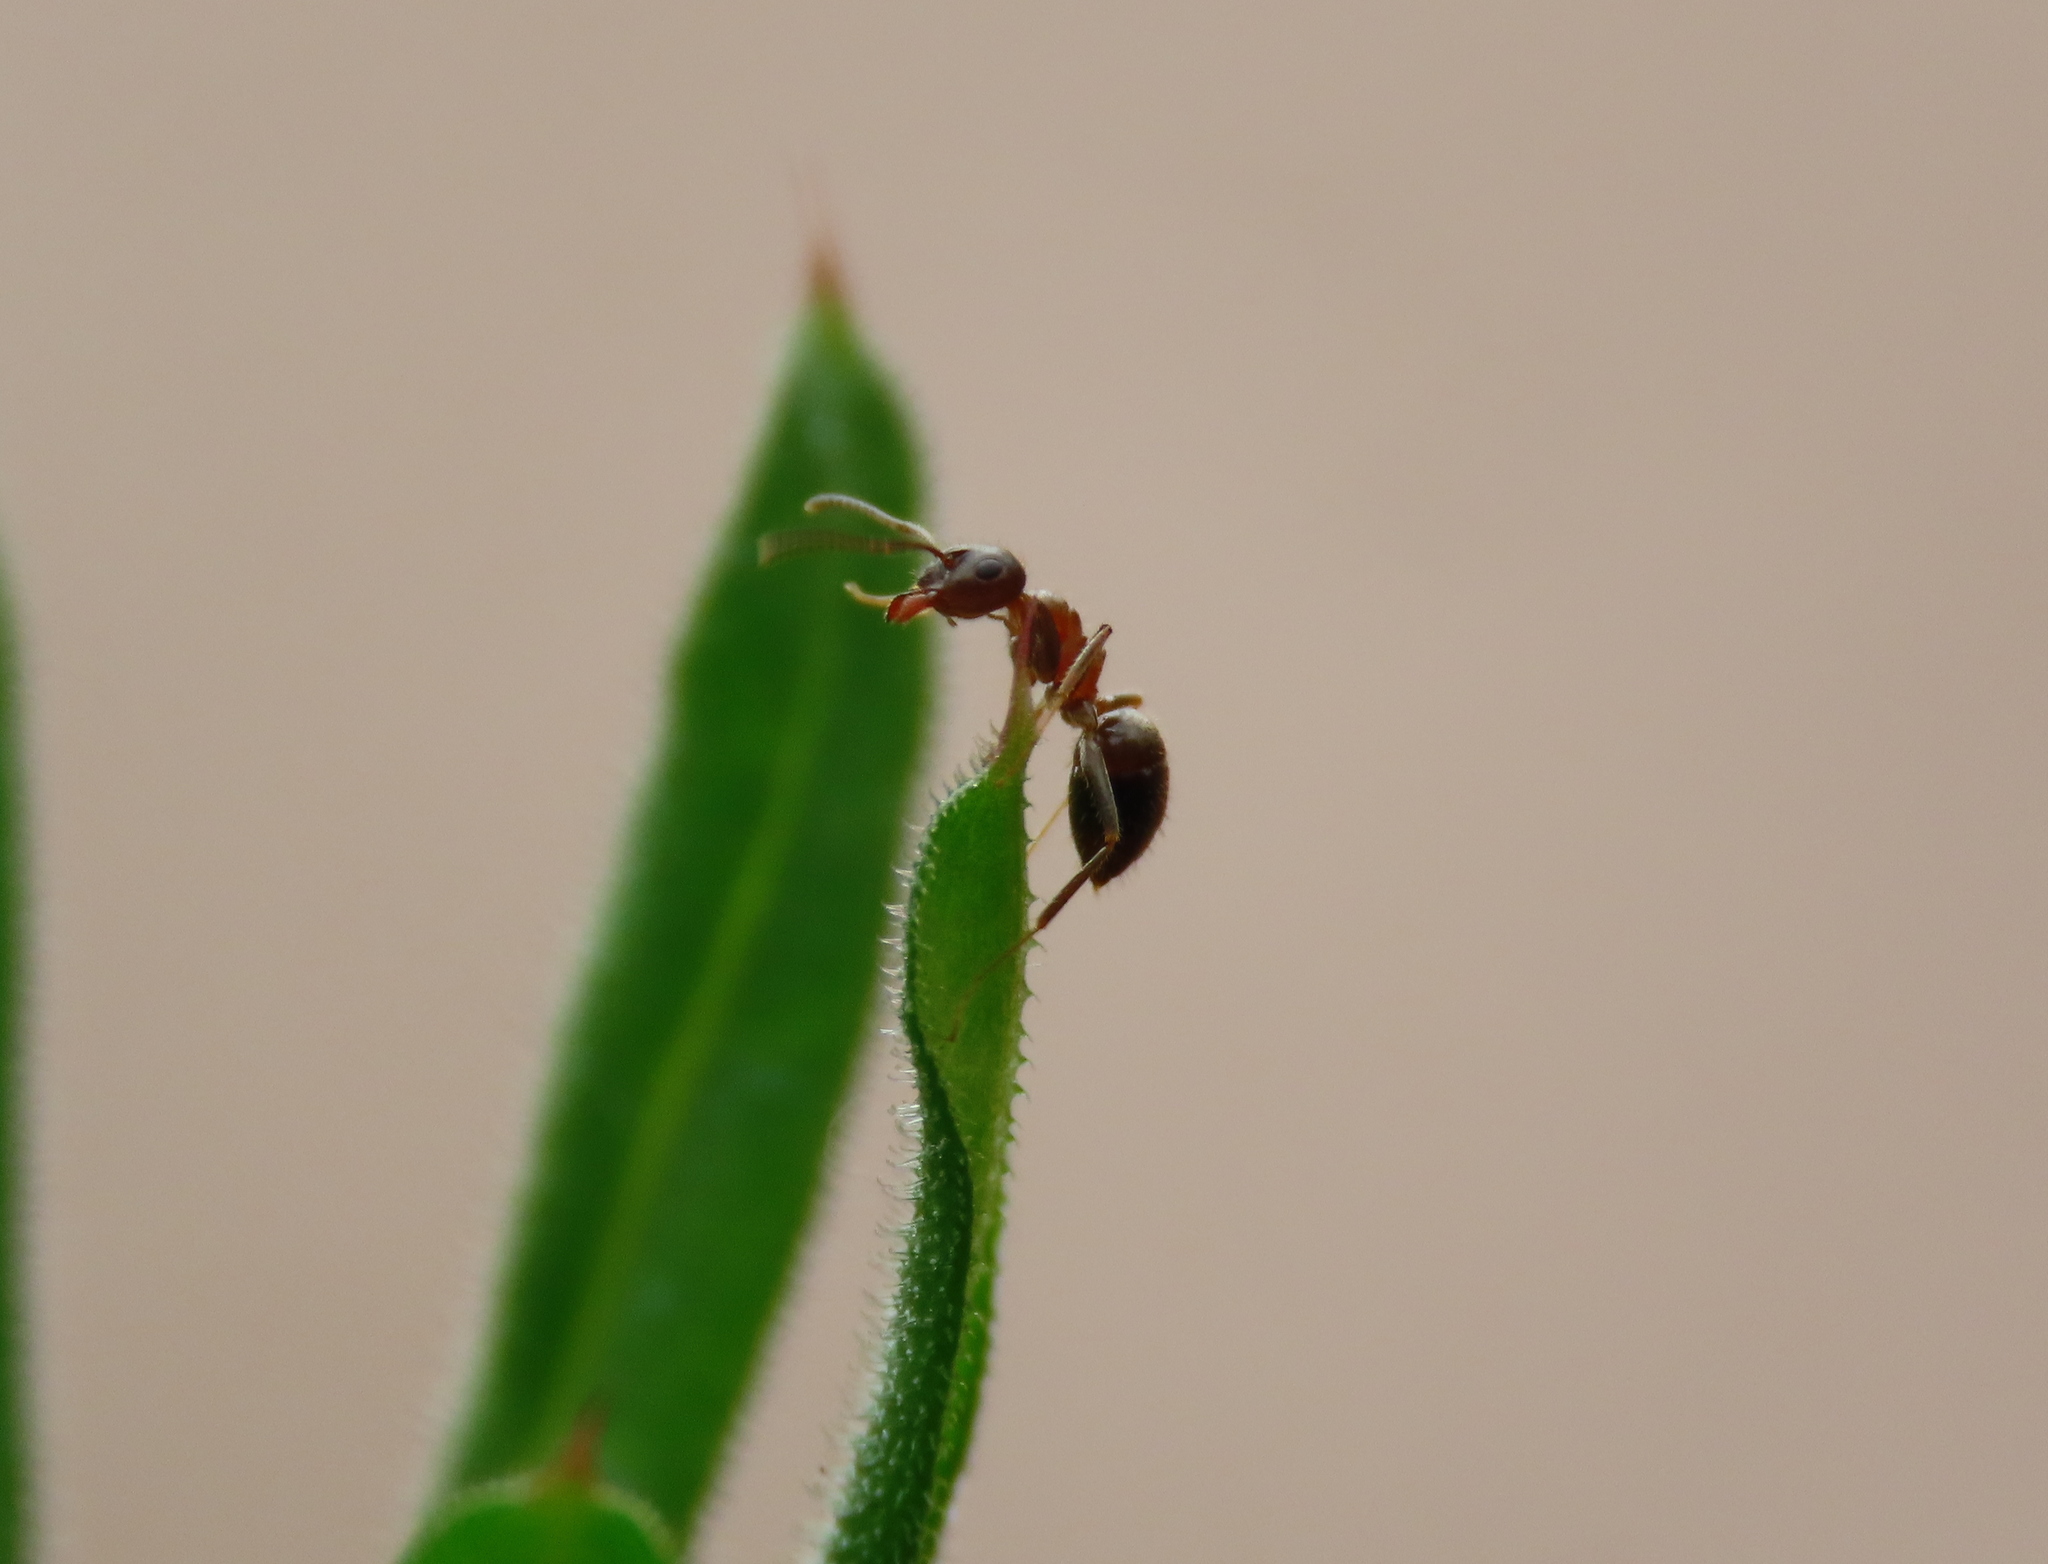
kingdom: Animalia
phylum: Arthropoda
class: Insecta
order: Hymenoptera
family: Formicidae
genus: Lasius
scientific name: Lasius emarginatus
